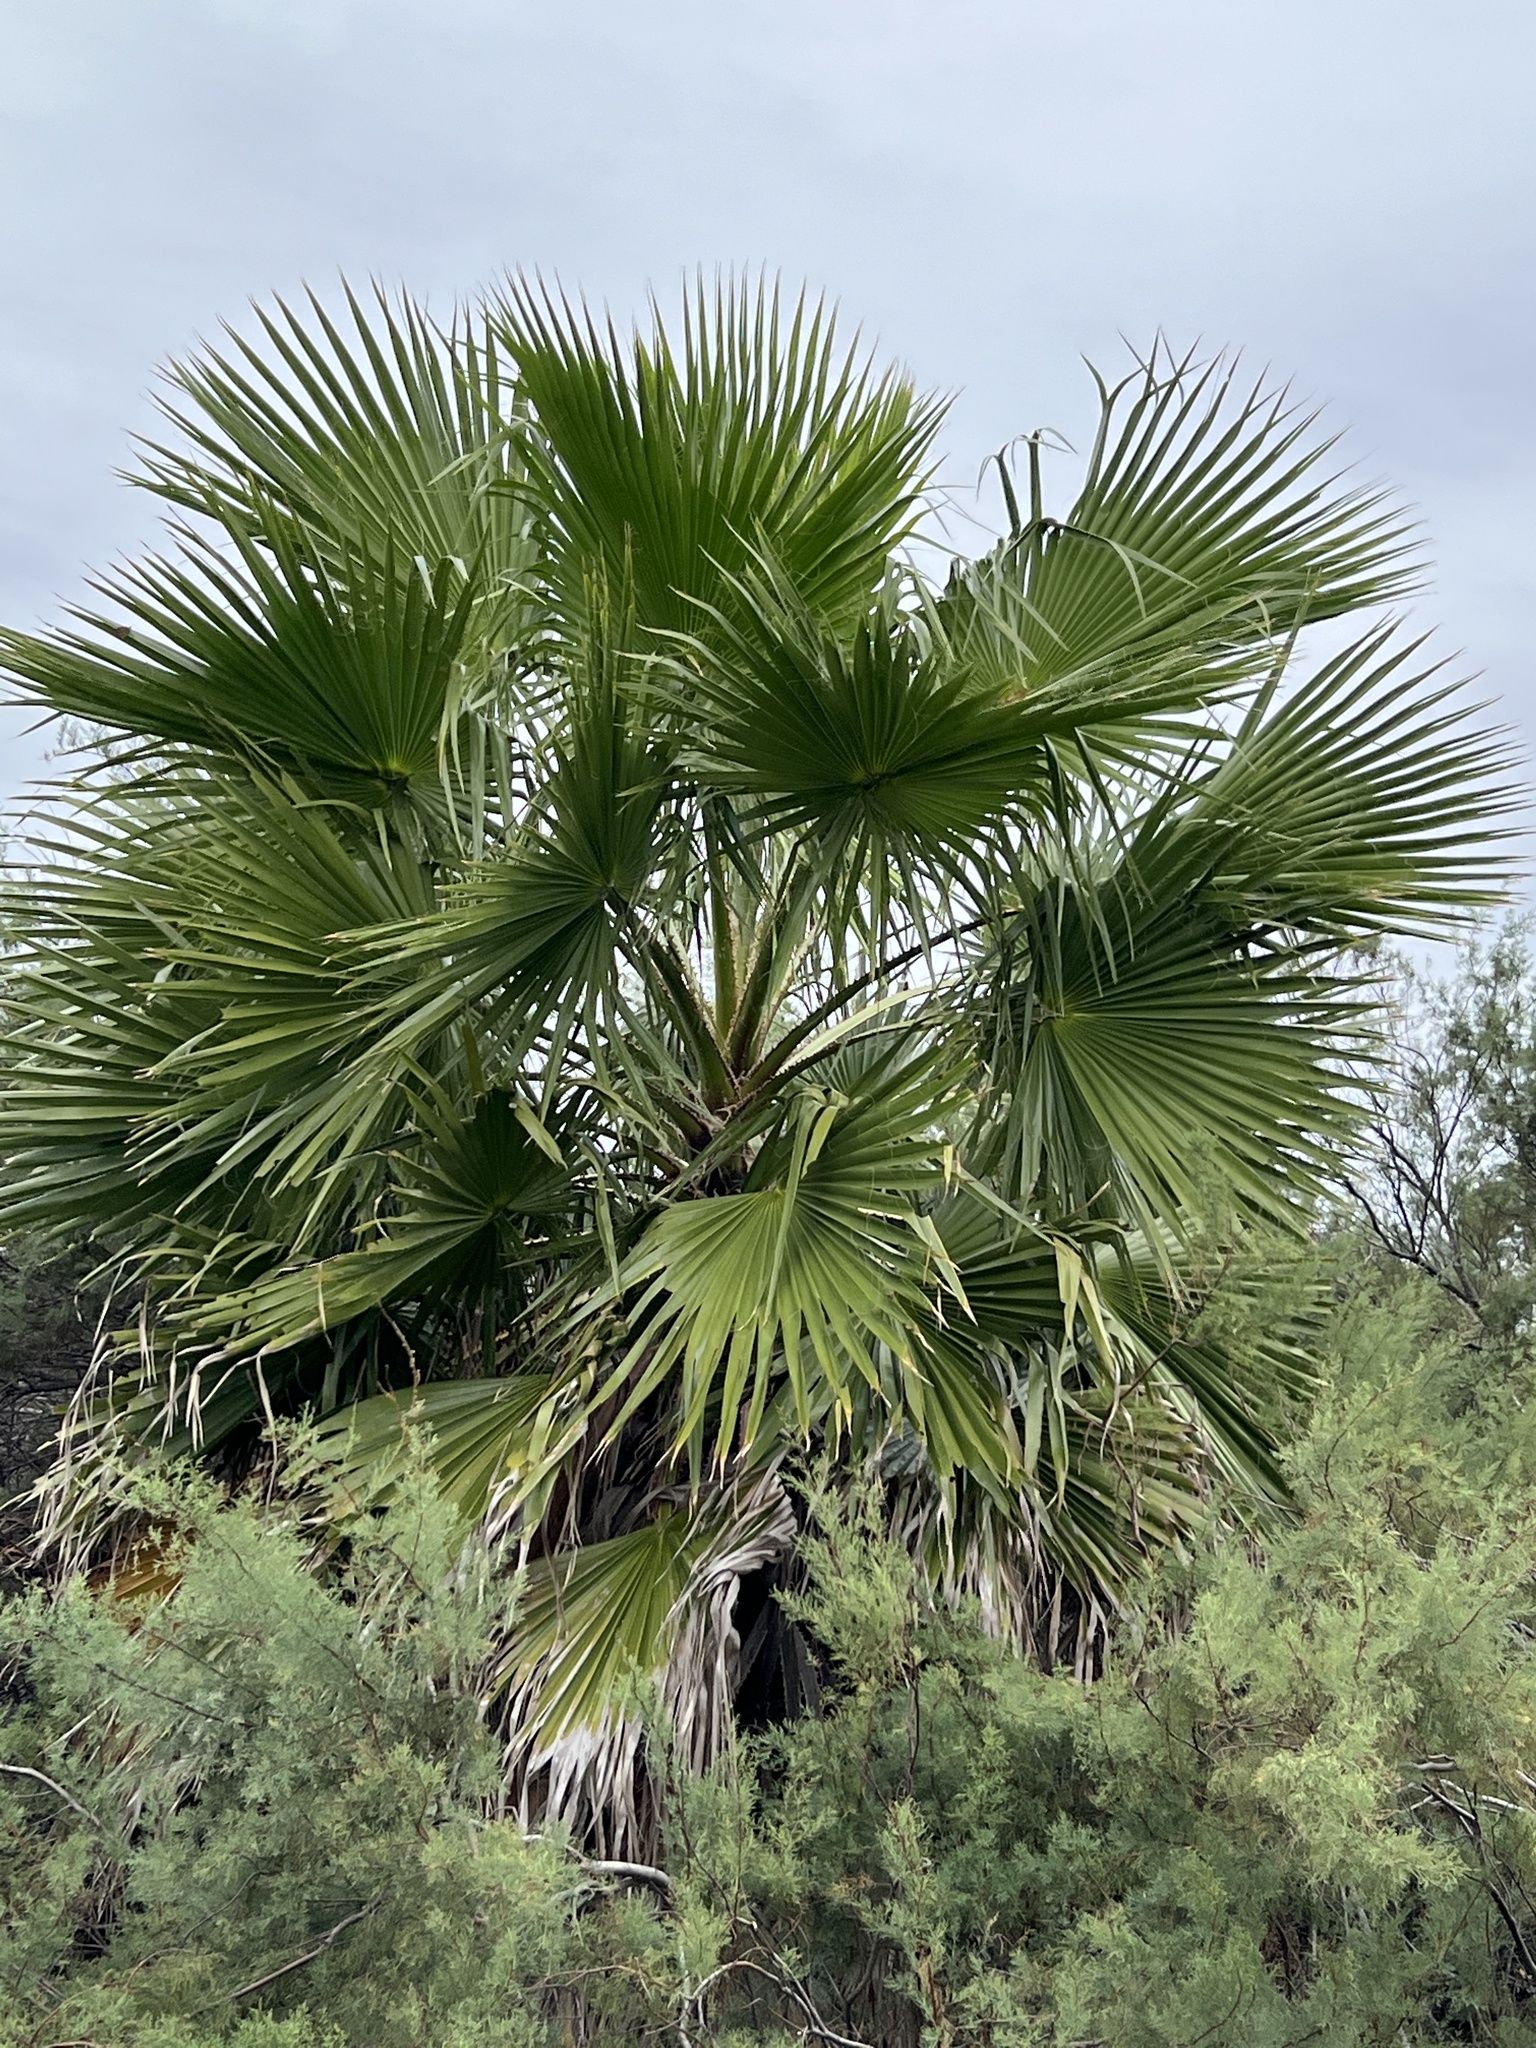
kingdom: Plantae
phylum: Tracheophyta
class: Liliopsida
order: Arecales
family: Arecaceae
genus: Washingtonia
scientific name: Washingtonia robusta
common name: Mexican fan palm
